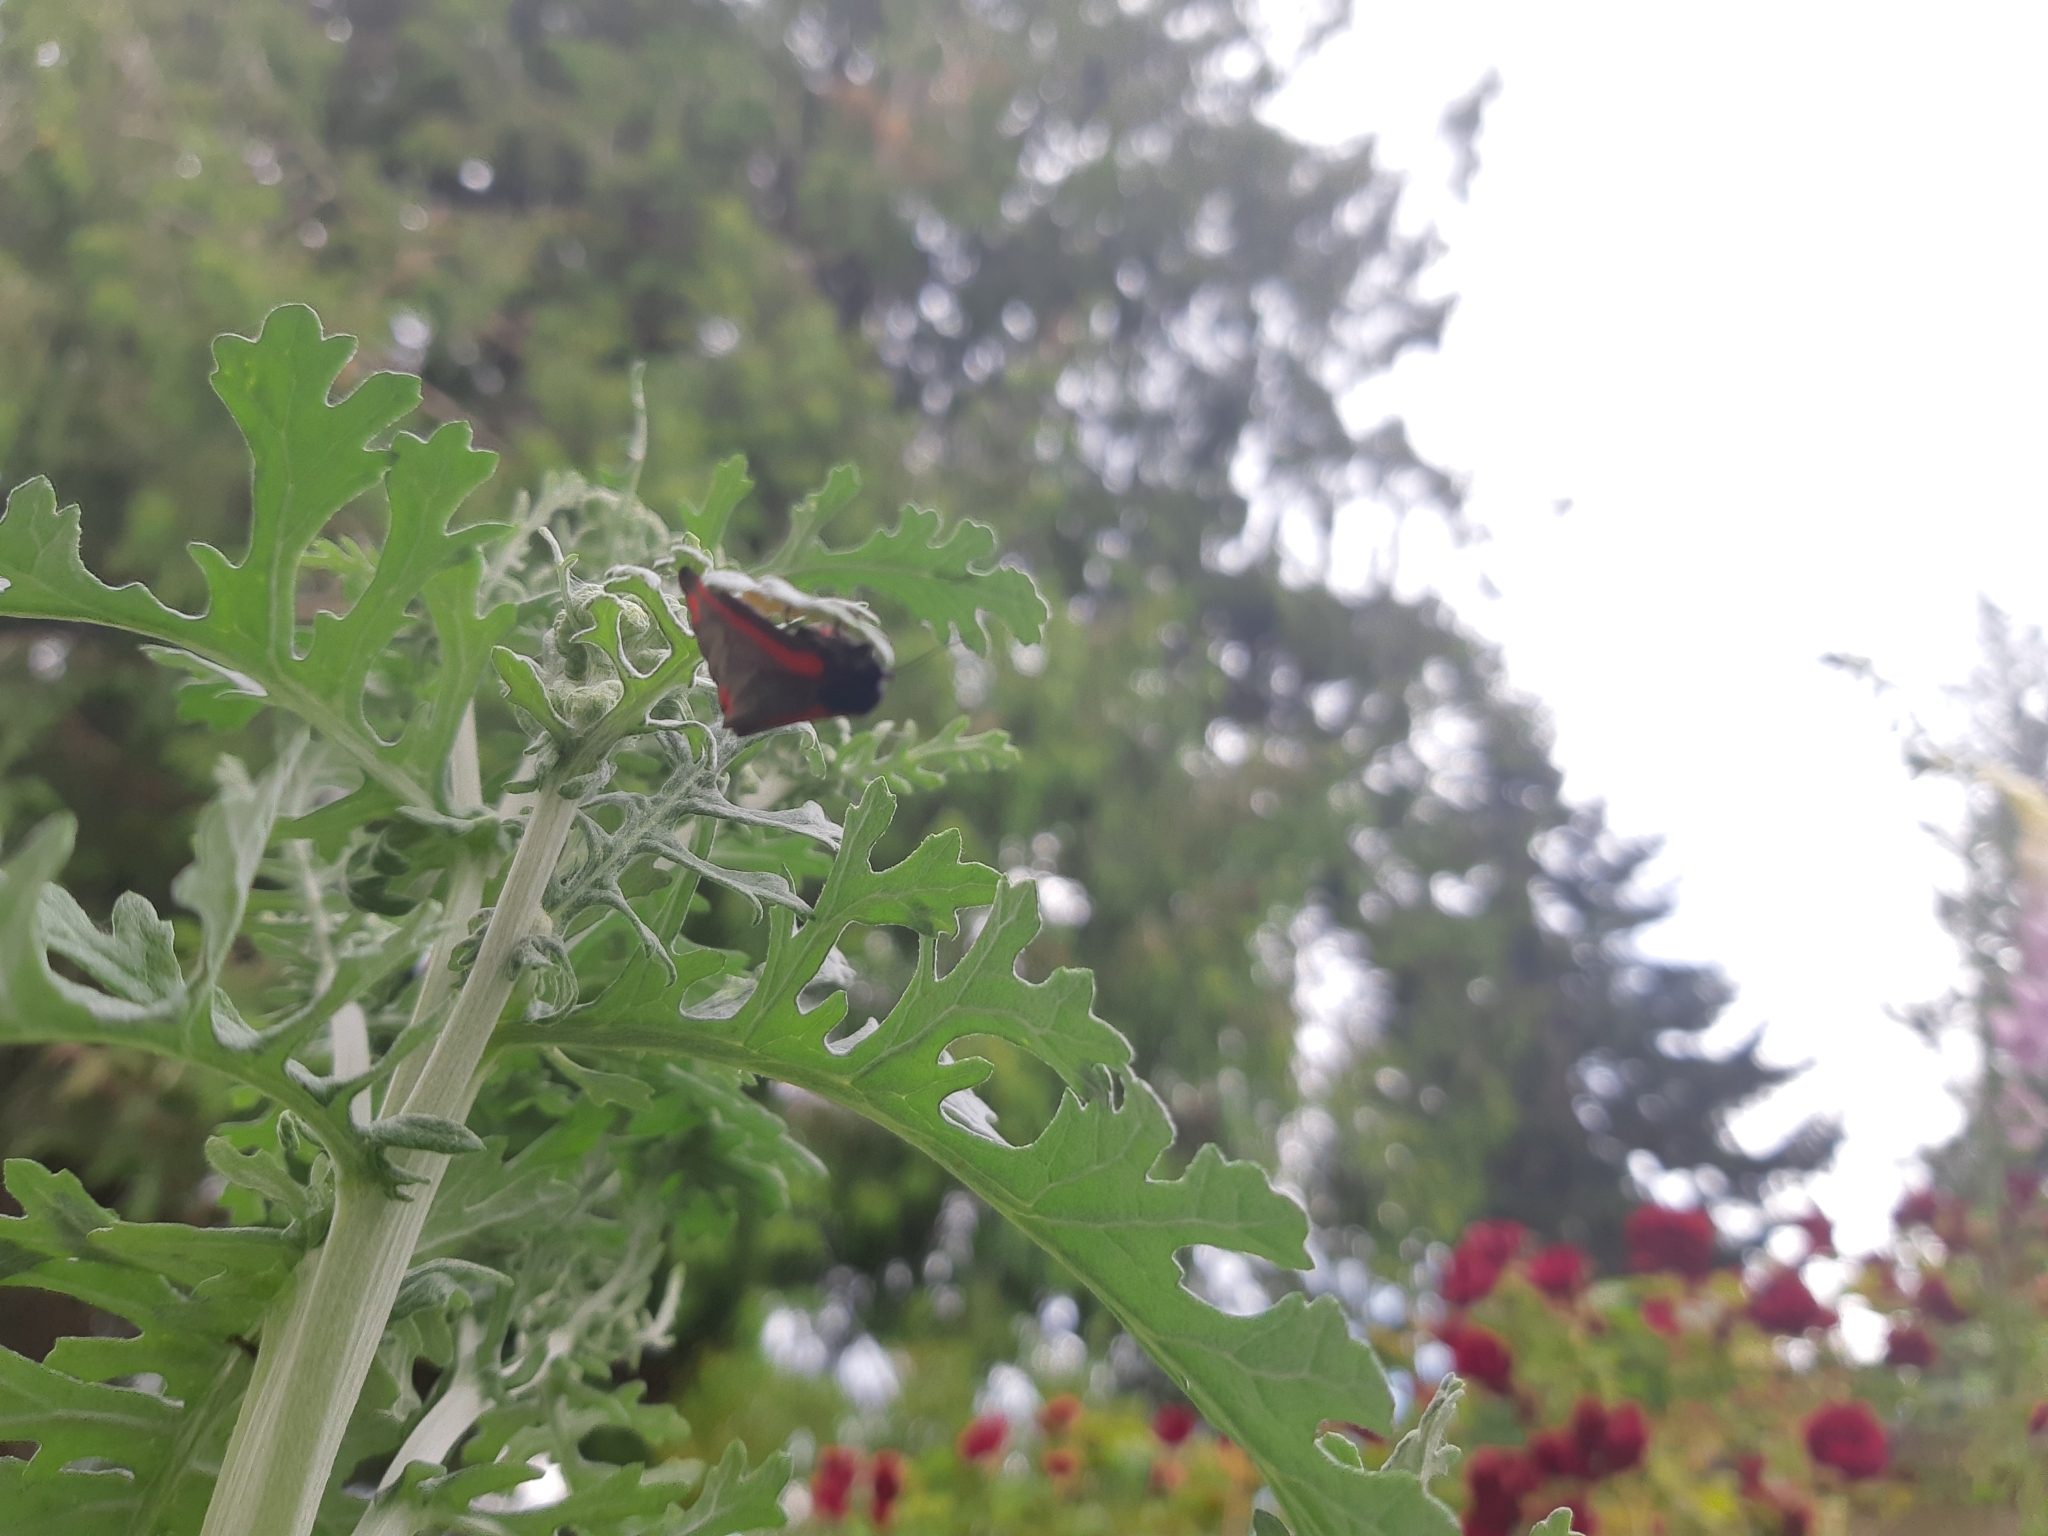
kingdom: Animalia
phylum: Arthropoda
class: Insecta
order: Lepidoptera
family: Erebidae
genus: Tyria
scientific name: Tyria jacobaeae
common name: Cinnabar
